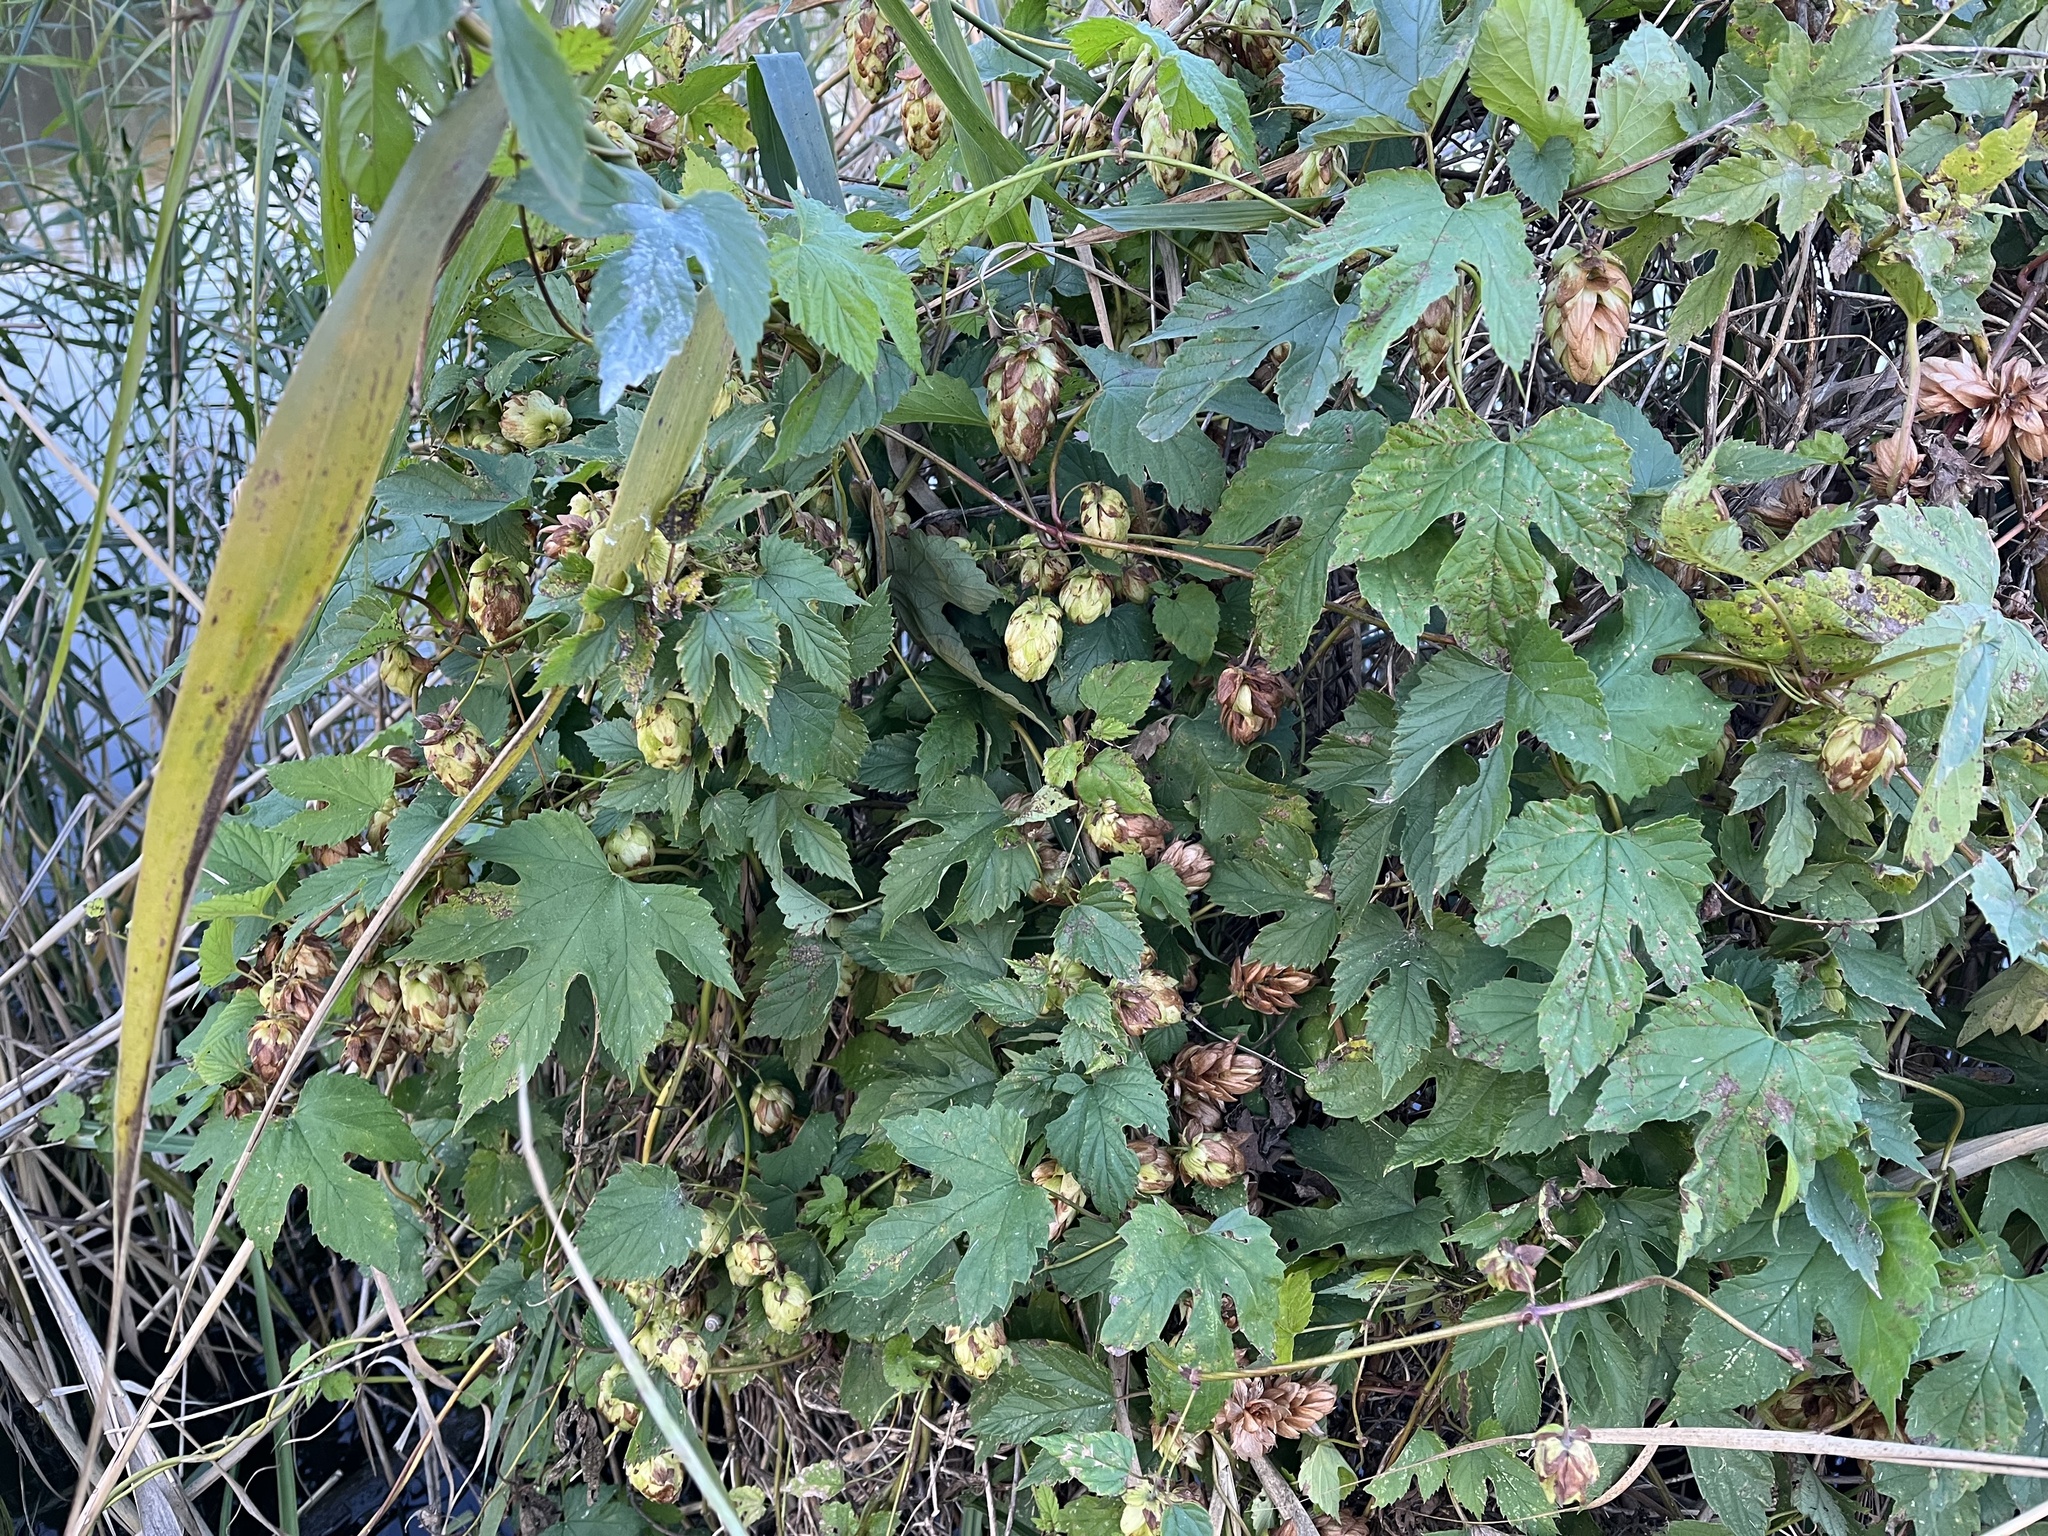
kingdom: Plantae
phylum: Tracheophyta
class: Magnoliopsida
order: Rosales
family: Cannabaceae
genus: Humulus
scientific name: Humulus lupulus
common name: Hop
